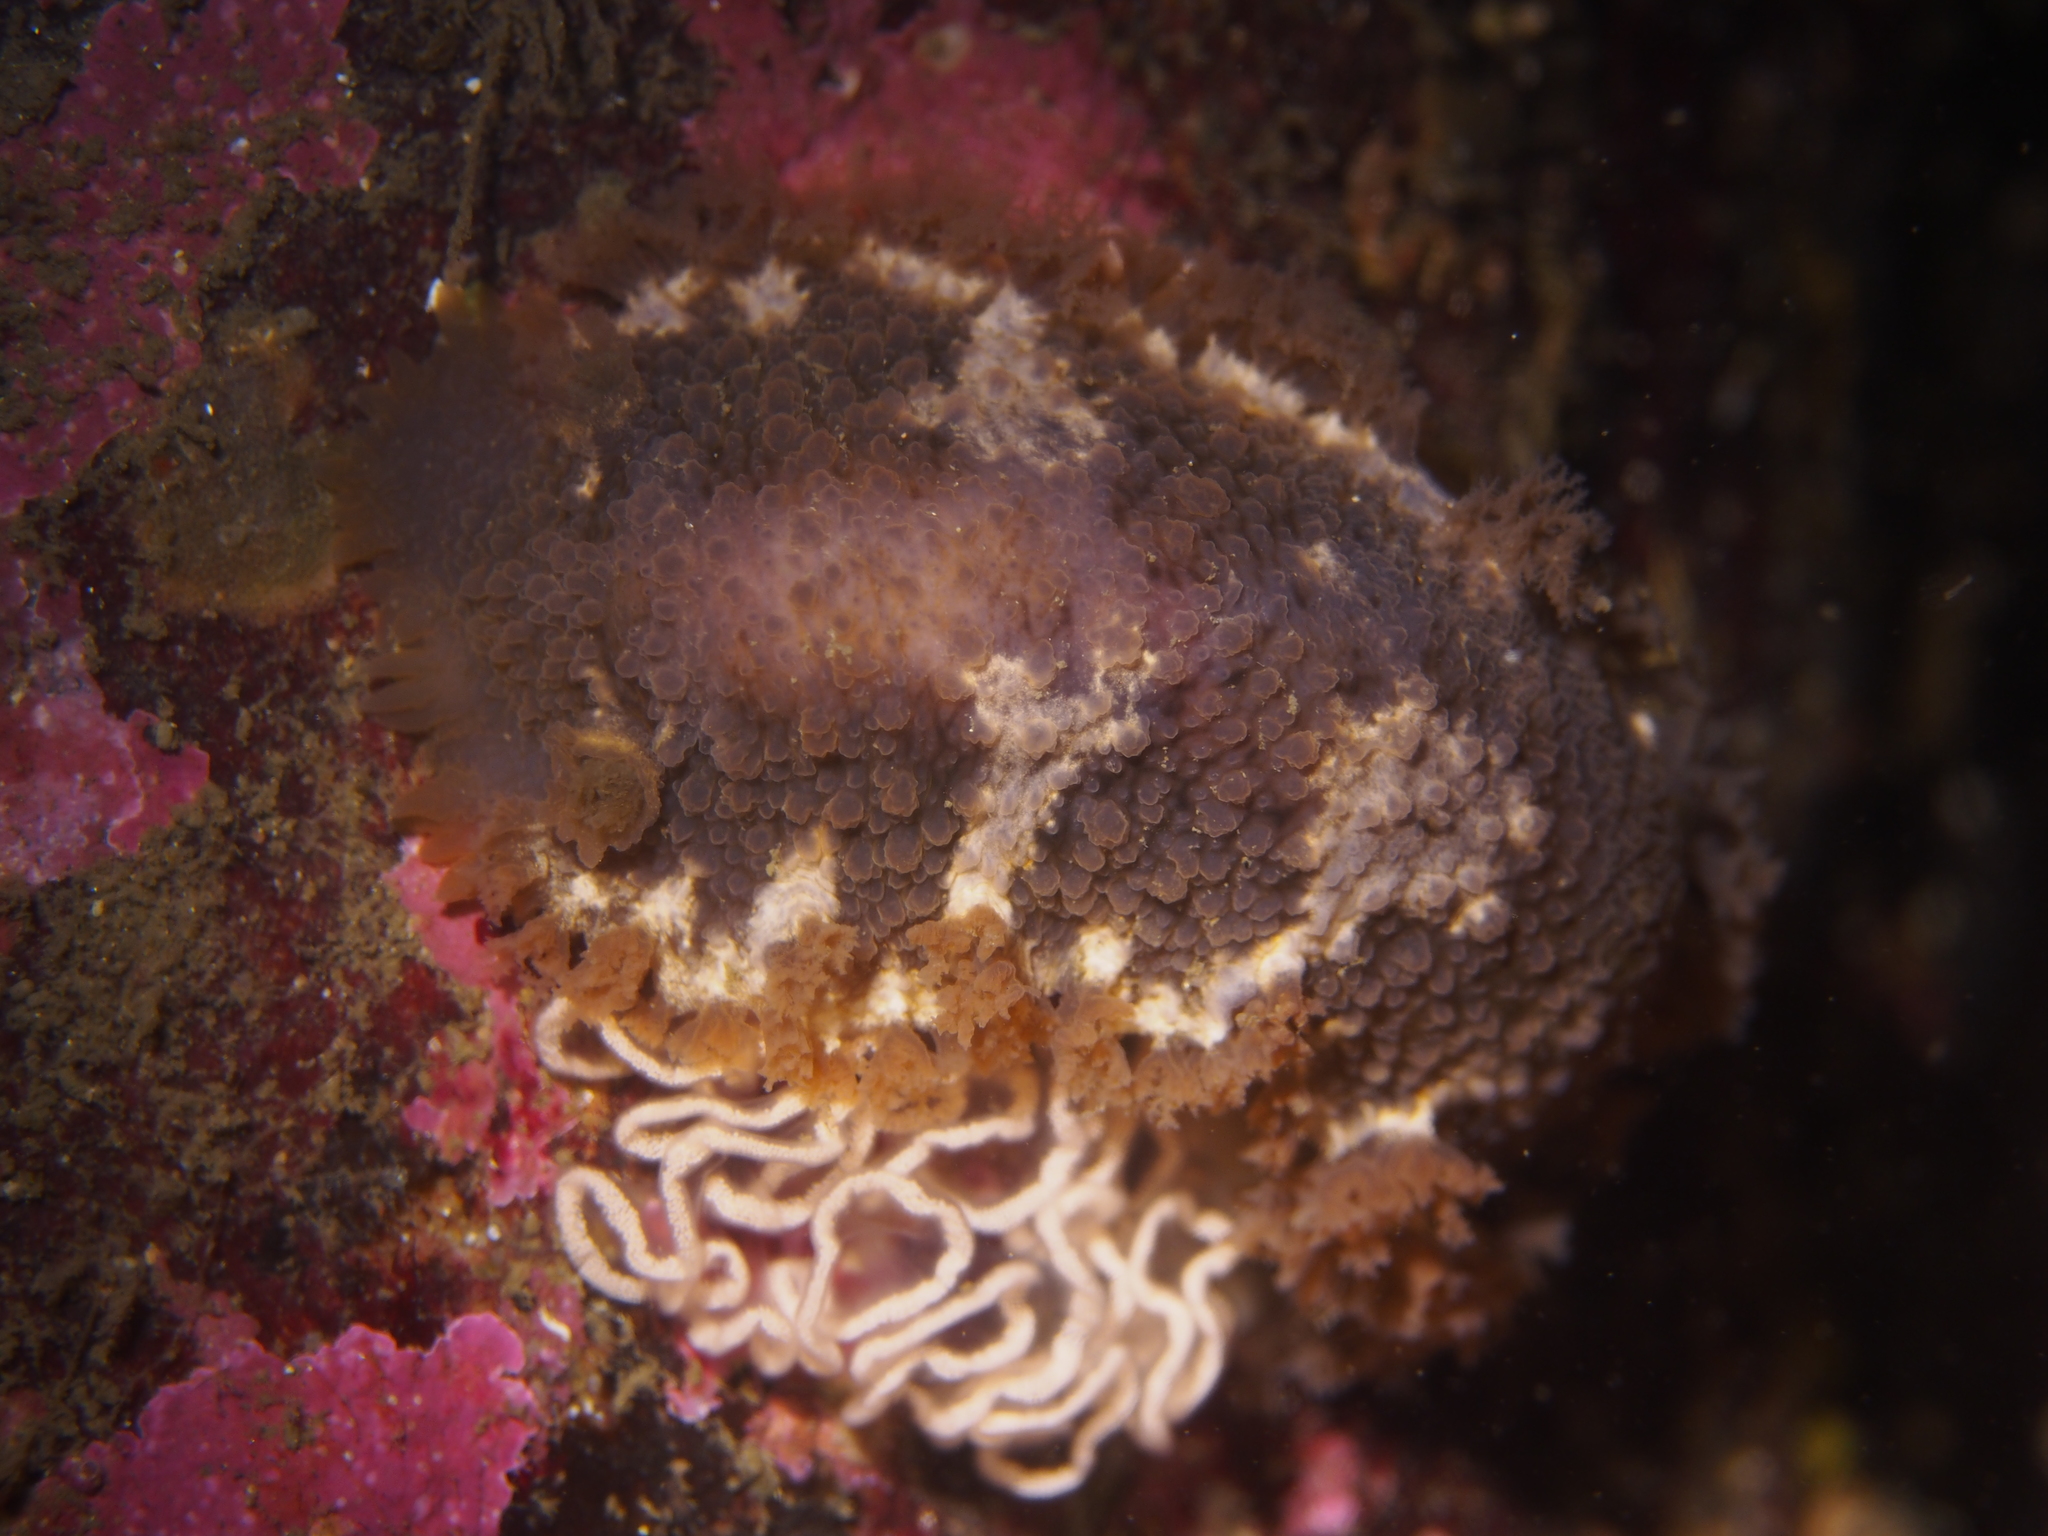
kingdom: Animalia
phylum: Mollusca
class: Gastropoda
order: Nudibranchia
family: Tritoniidae
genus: Tritonia
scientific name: Tritonia hombergii
